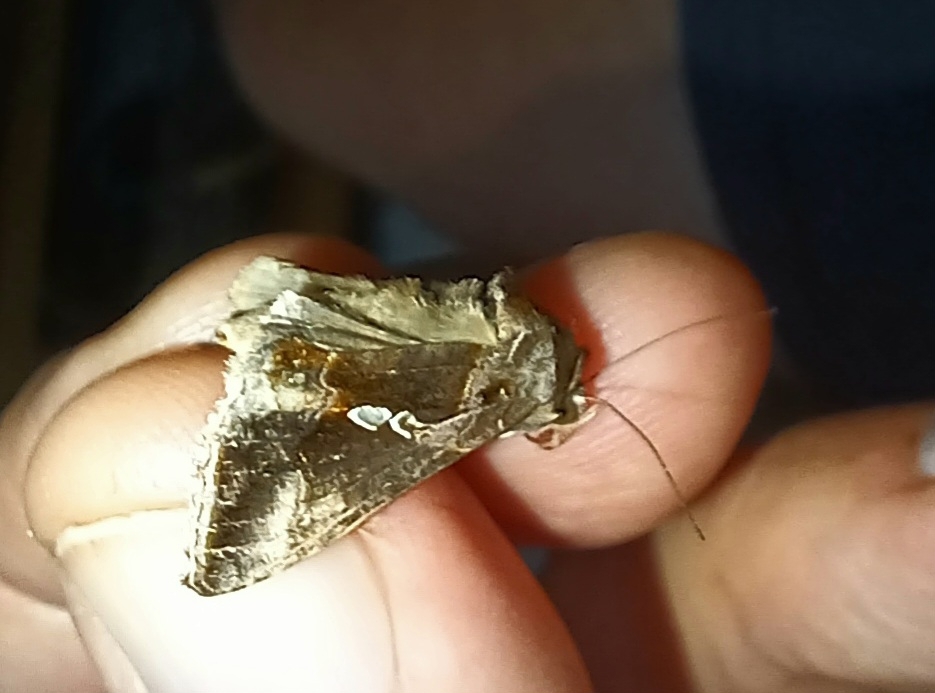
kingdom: Animalia
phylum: Arthropoda
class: Insecta
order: Lepidoptera
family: Noctuidae
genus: Chrysodeixis
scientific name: Chrysodeixis eriosoma
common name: Green garden looper
